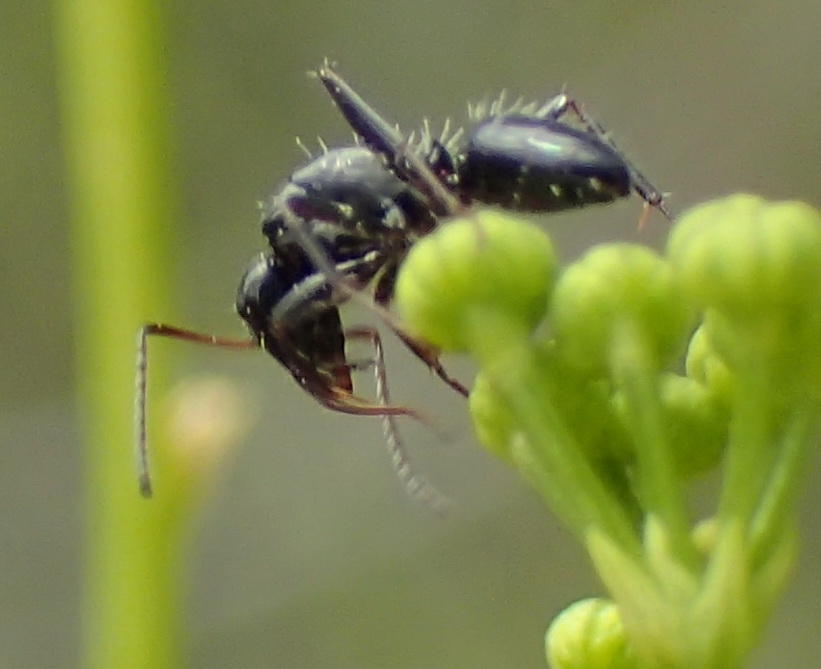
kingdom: Animalia
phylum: Arthropoda
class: Insecta
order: Hymenoptera
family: Formicidae
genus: Camponotus
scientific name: Camponotus niveosetosus
